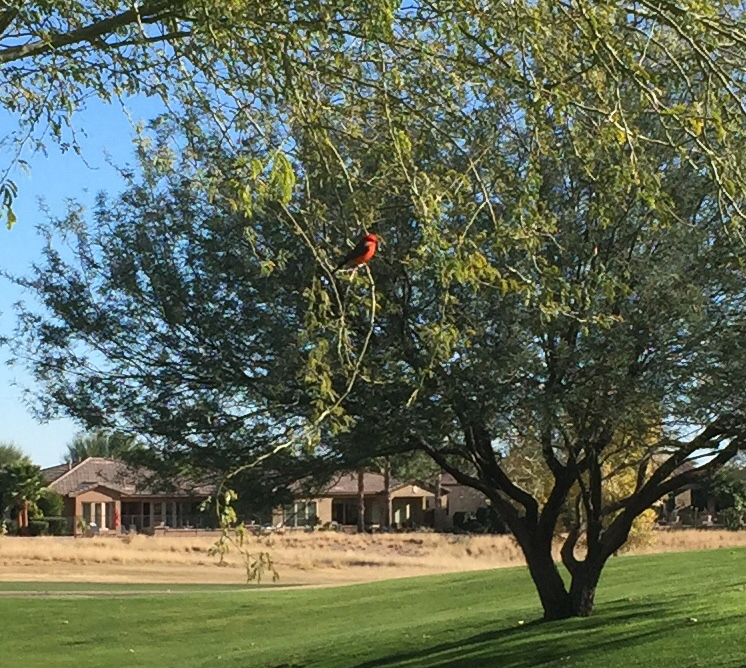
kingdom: Animalia
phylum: Chordata
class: Aves
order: Passeriformes
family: Tyrannidae
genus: Pyrocephalus
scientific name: Pyrocephalus rubinus
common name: Vermilion flycatcher
